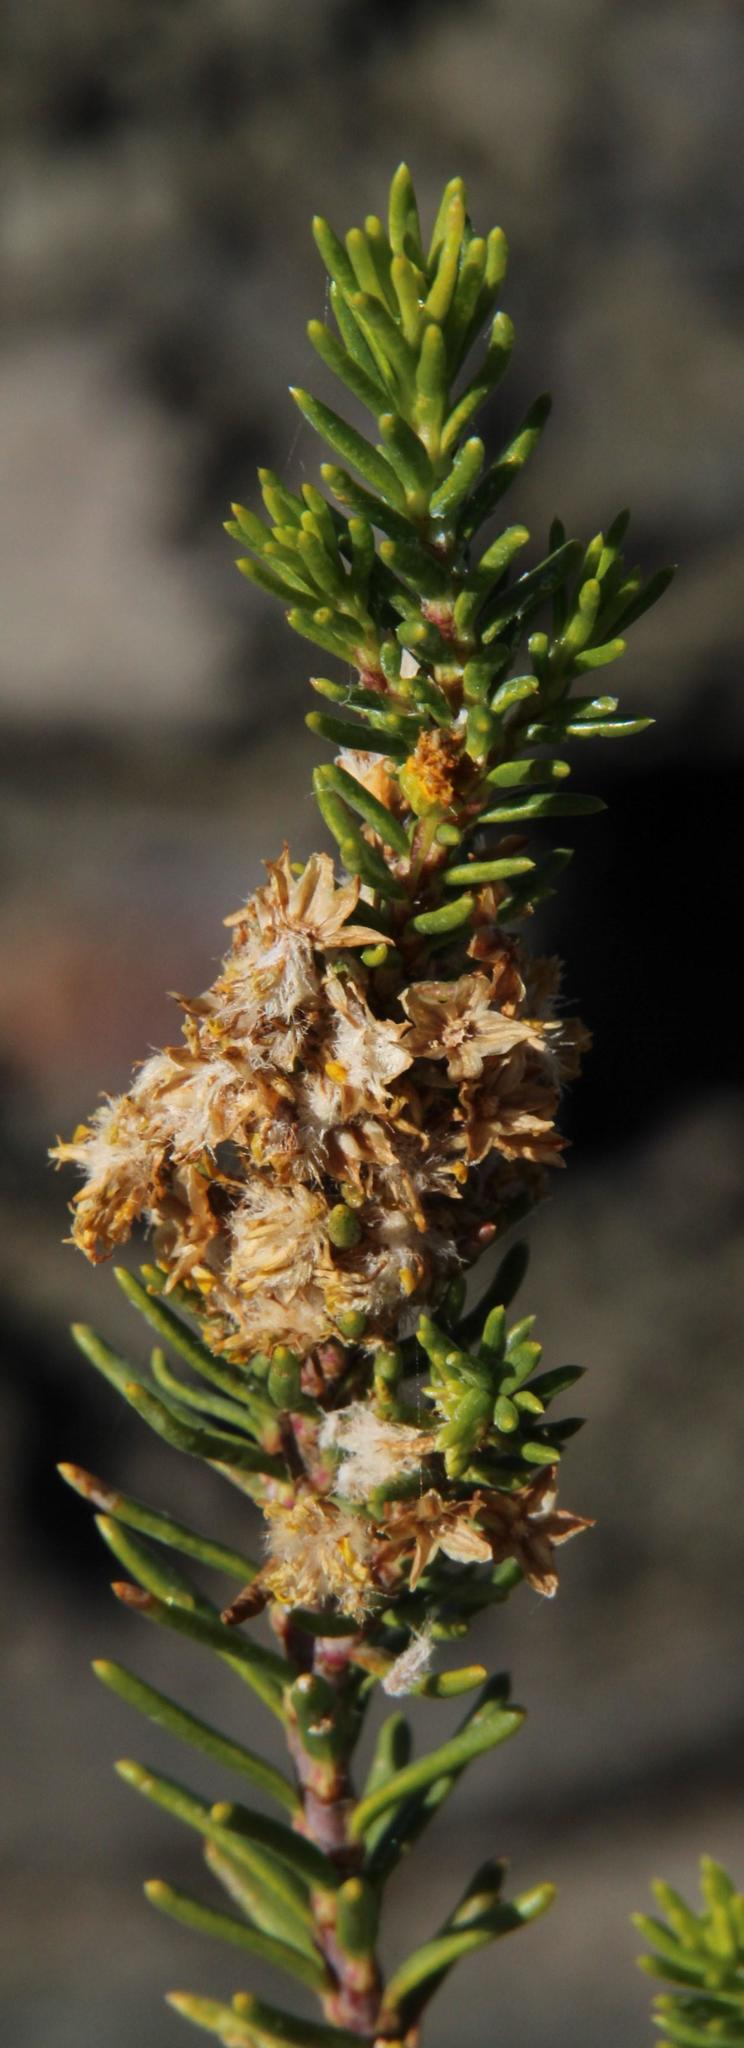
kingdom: Plantae
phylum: Tracheophyta
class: Magnoliopsida
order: Asterales
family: Asteraceae
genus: Euryops
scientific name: Euryops nodosus
